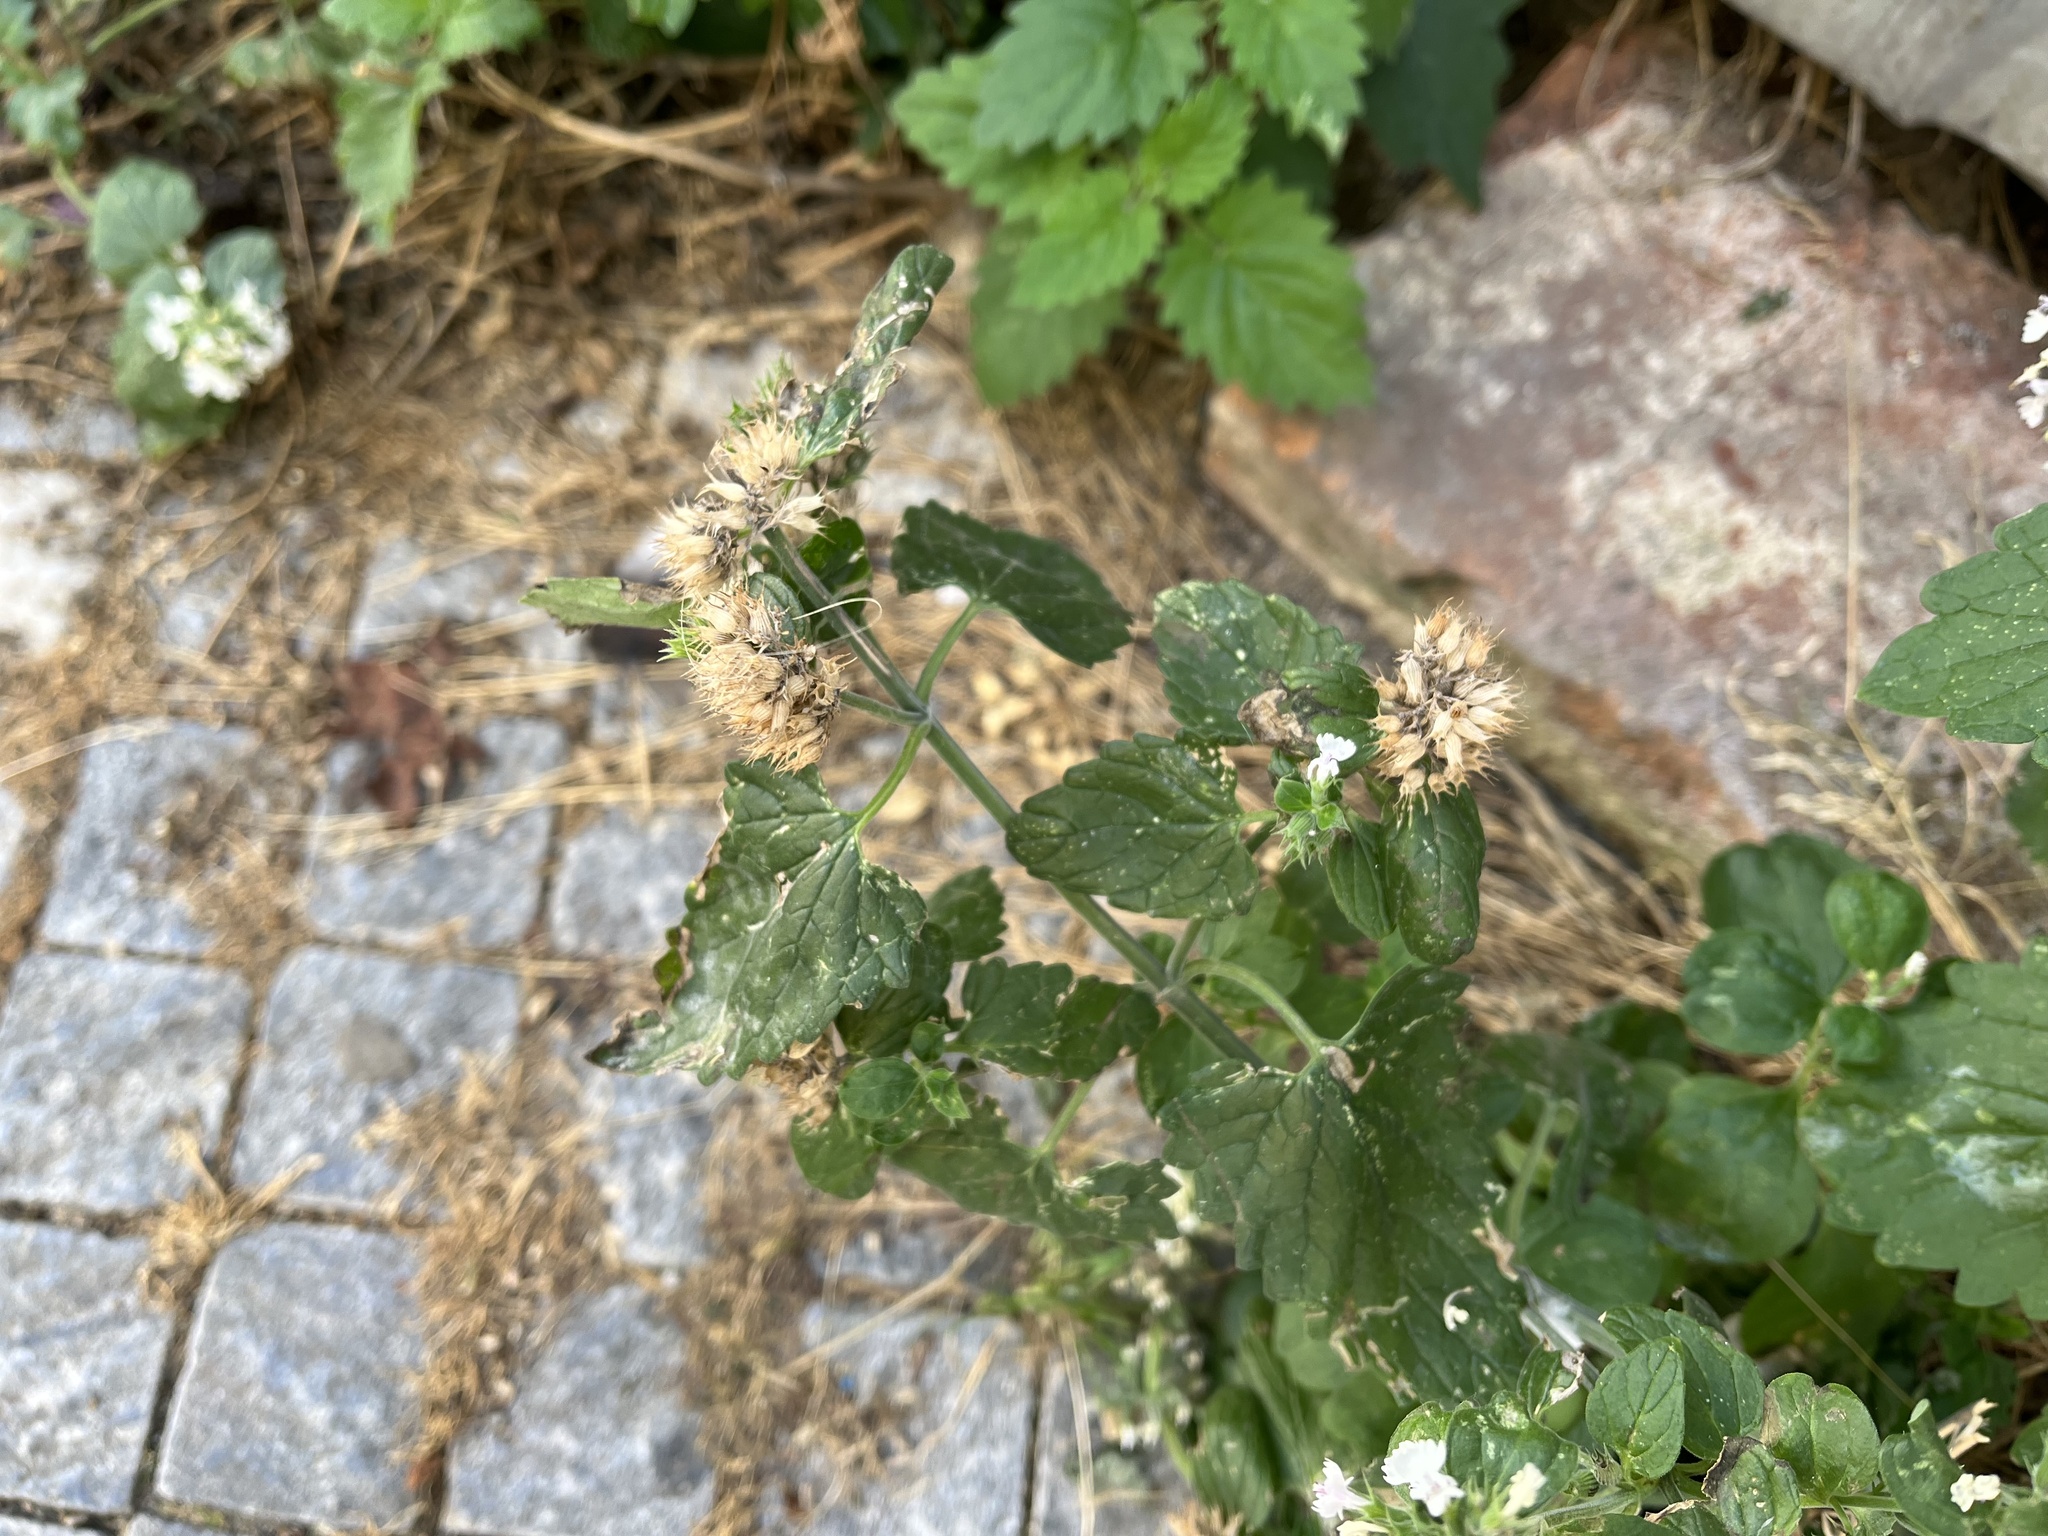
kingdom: Plantae
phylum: Tracheophyta
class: Magnoliopsida
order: Lamiales
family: Lamiaceae
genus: Nepeta
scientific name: Nepeta cataria
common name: Catnip
